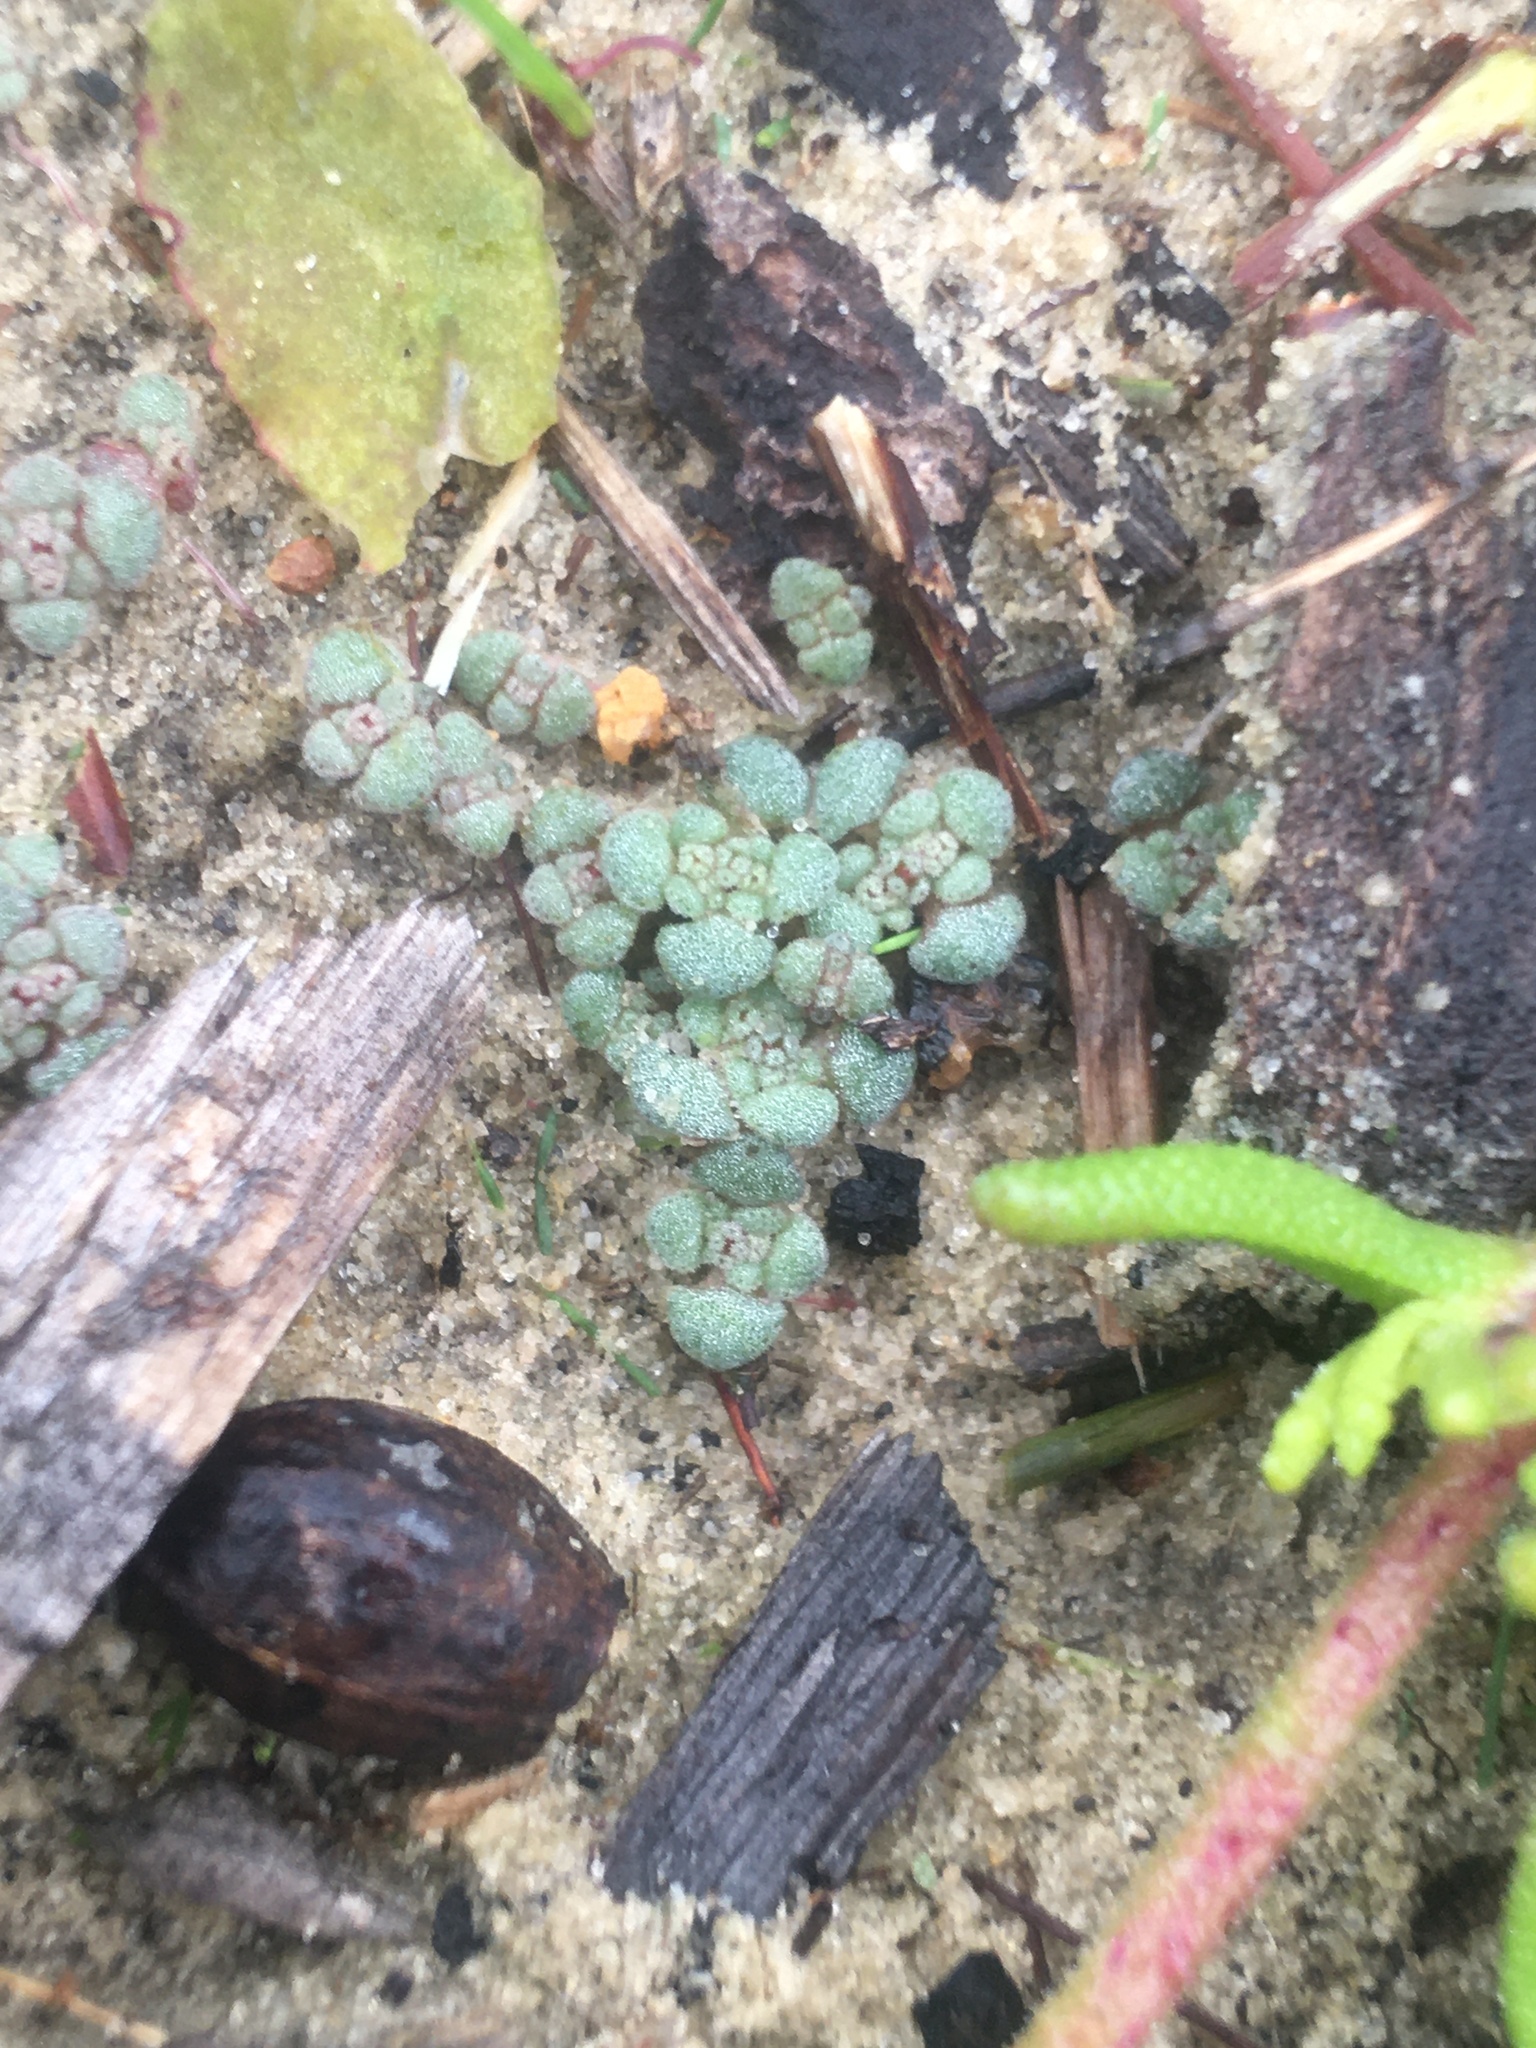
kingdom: Plantae
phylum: Tracheophyta
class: Magnoliopsida
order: Saxifragales
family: Crassulaceae
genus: Crassula
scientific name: Crassula umbellata
